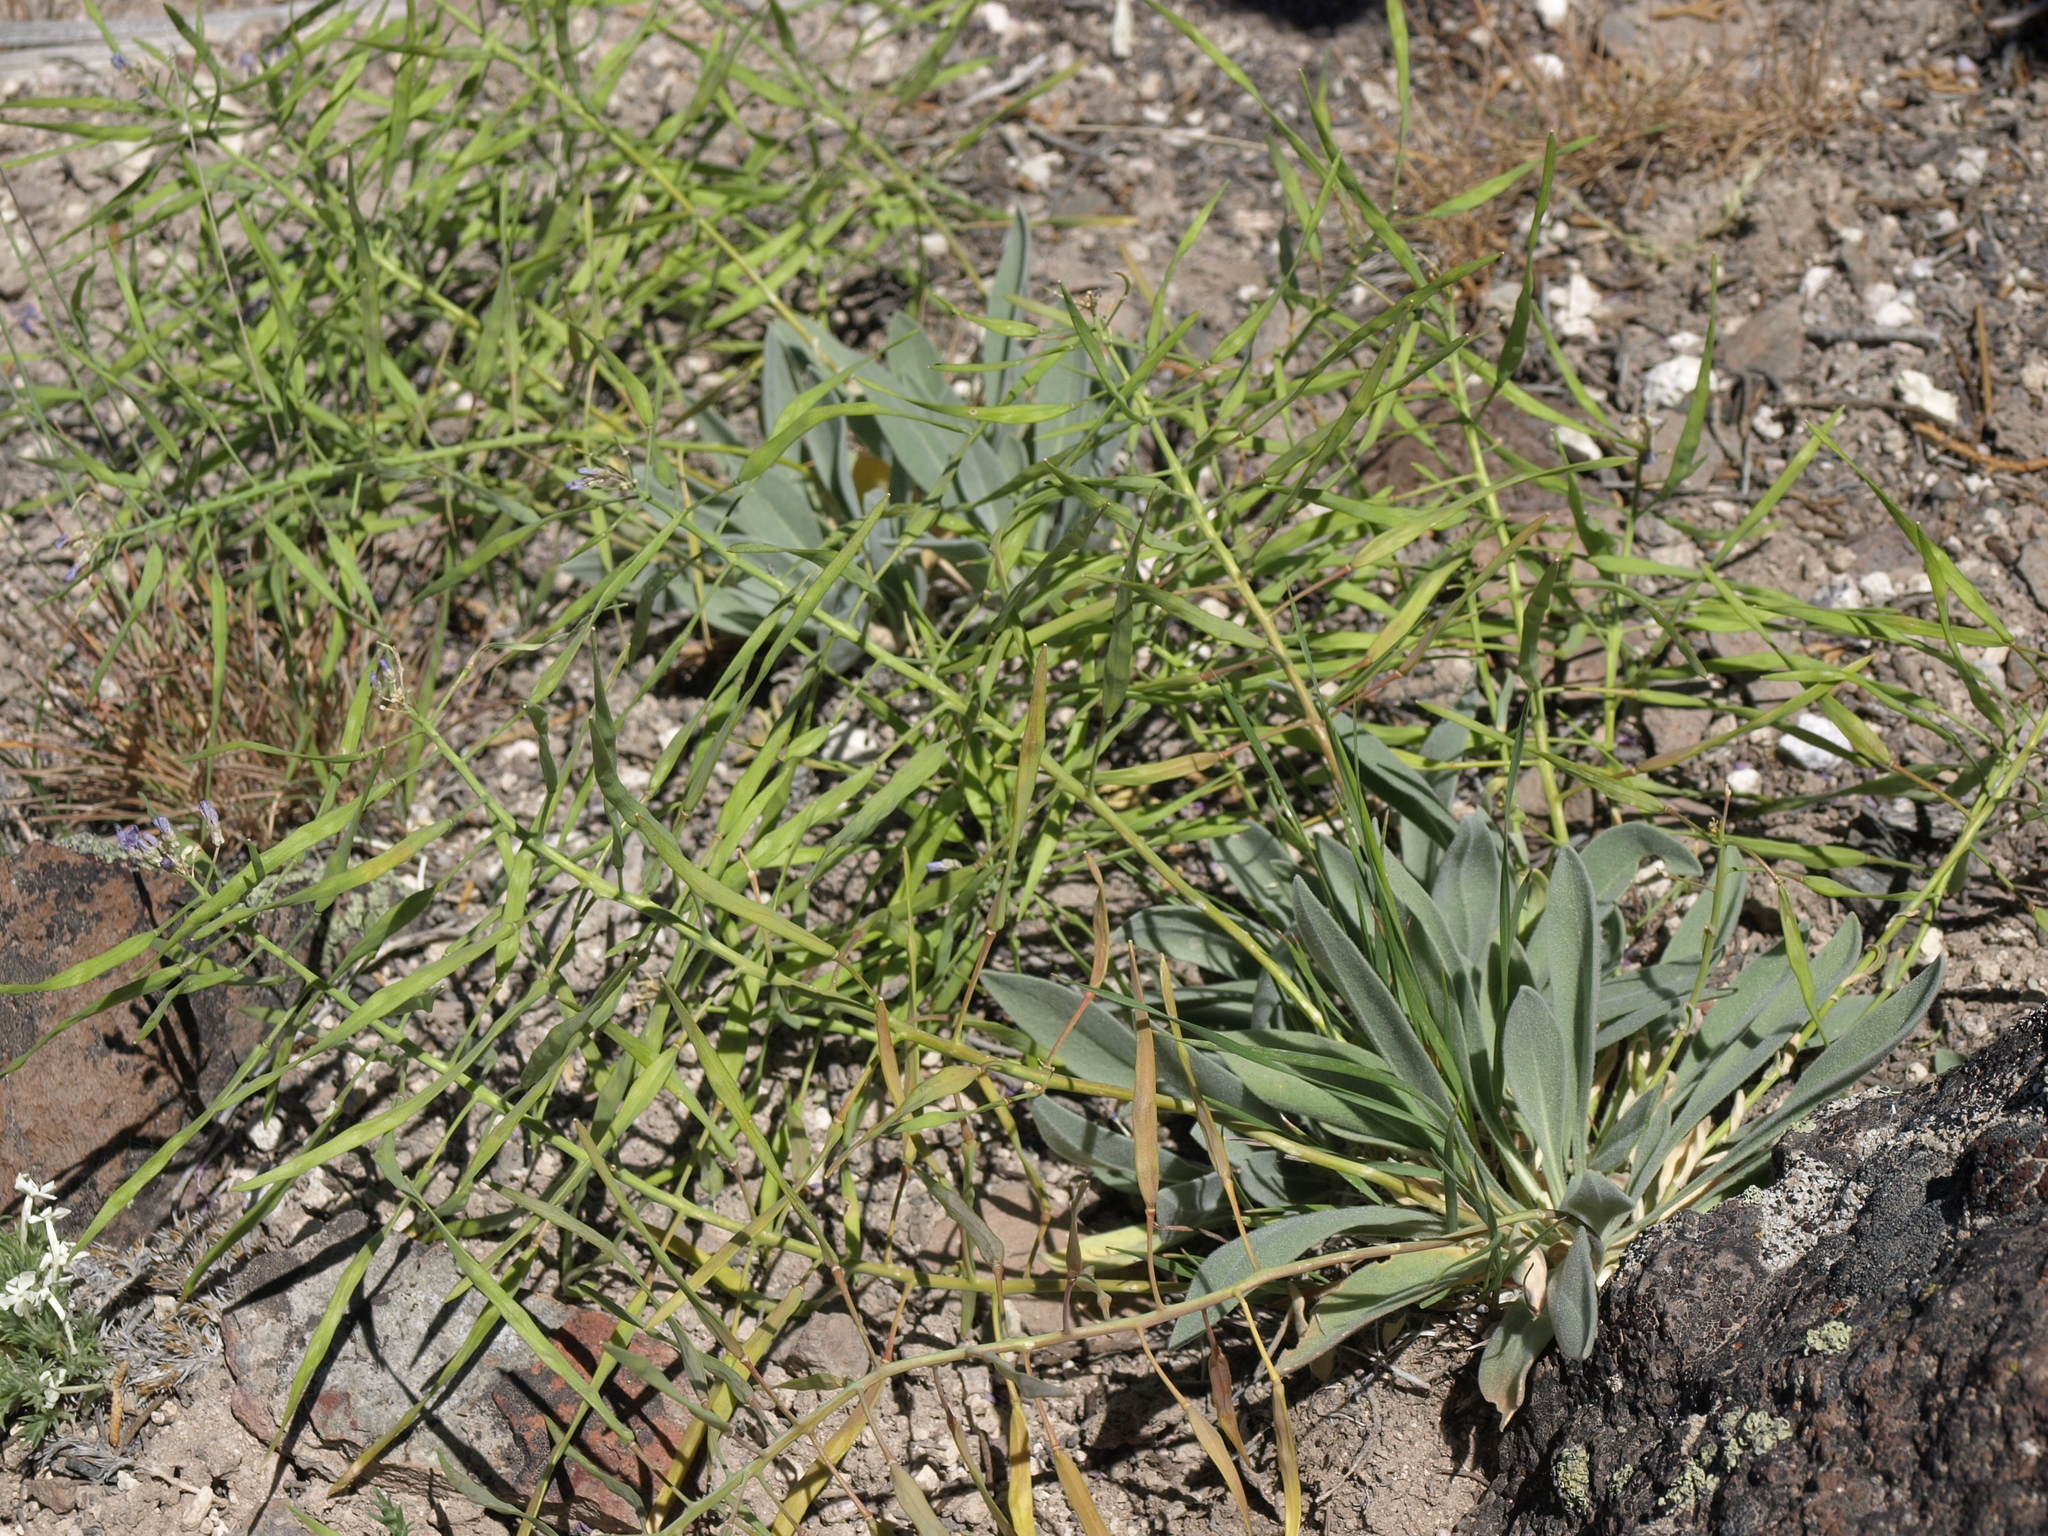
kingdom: Plantae
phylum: Tracheophyta
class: Magnoliopsida
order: Brassicales
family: Brassicaceae
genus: Phoenicaulis
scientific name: Phoenicaulis cheiranthoides
